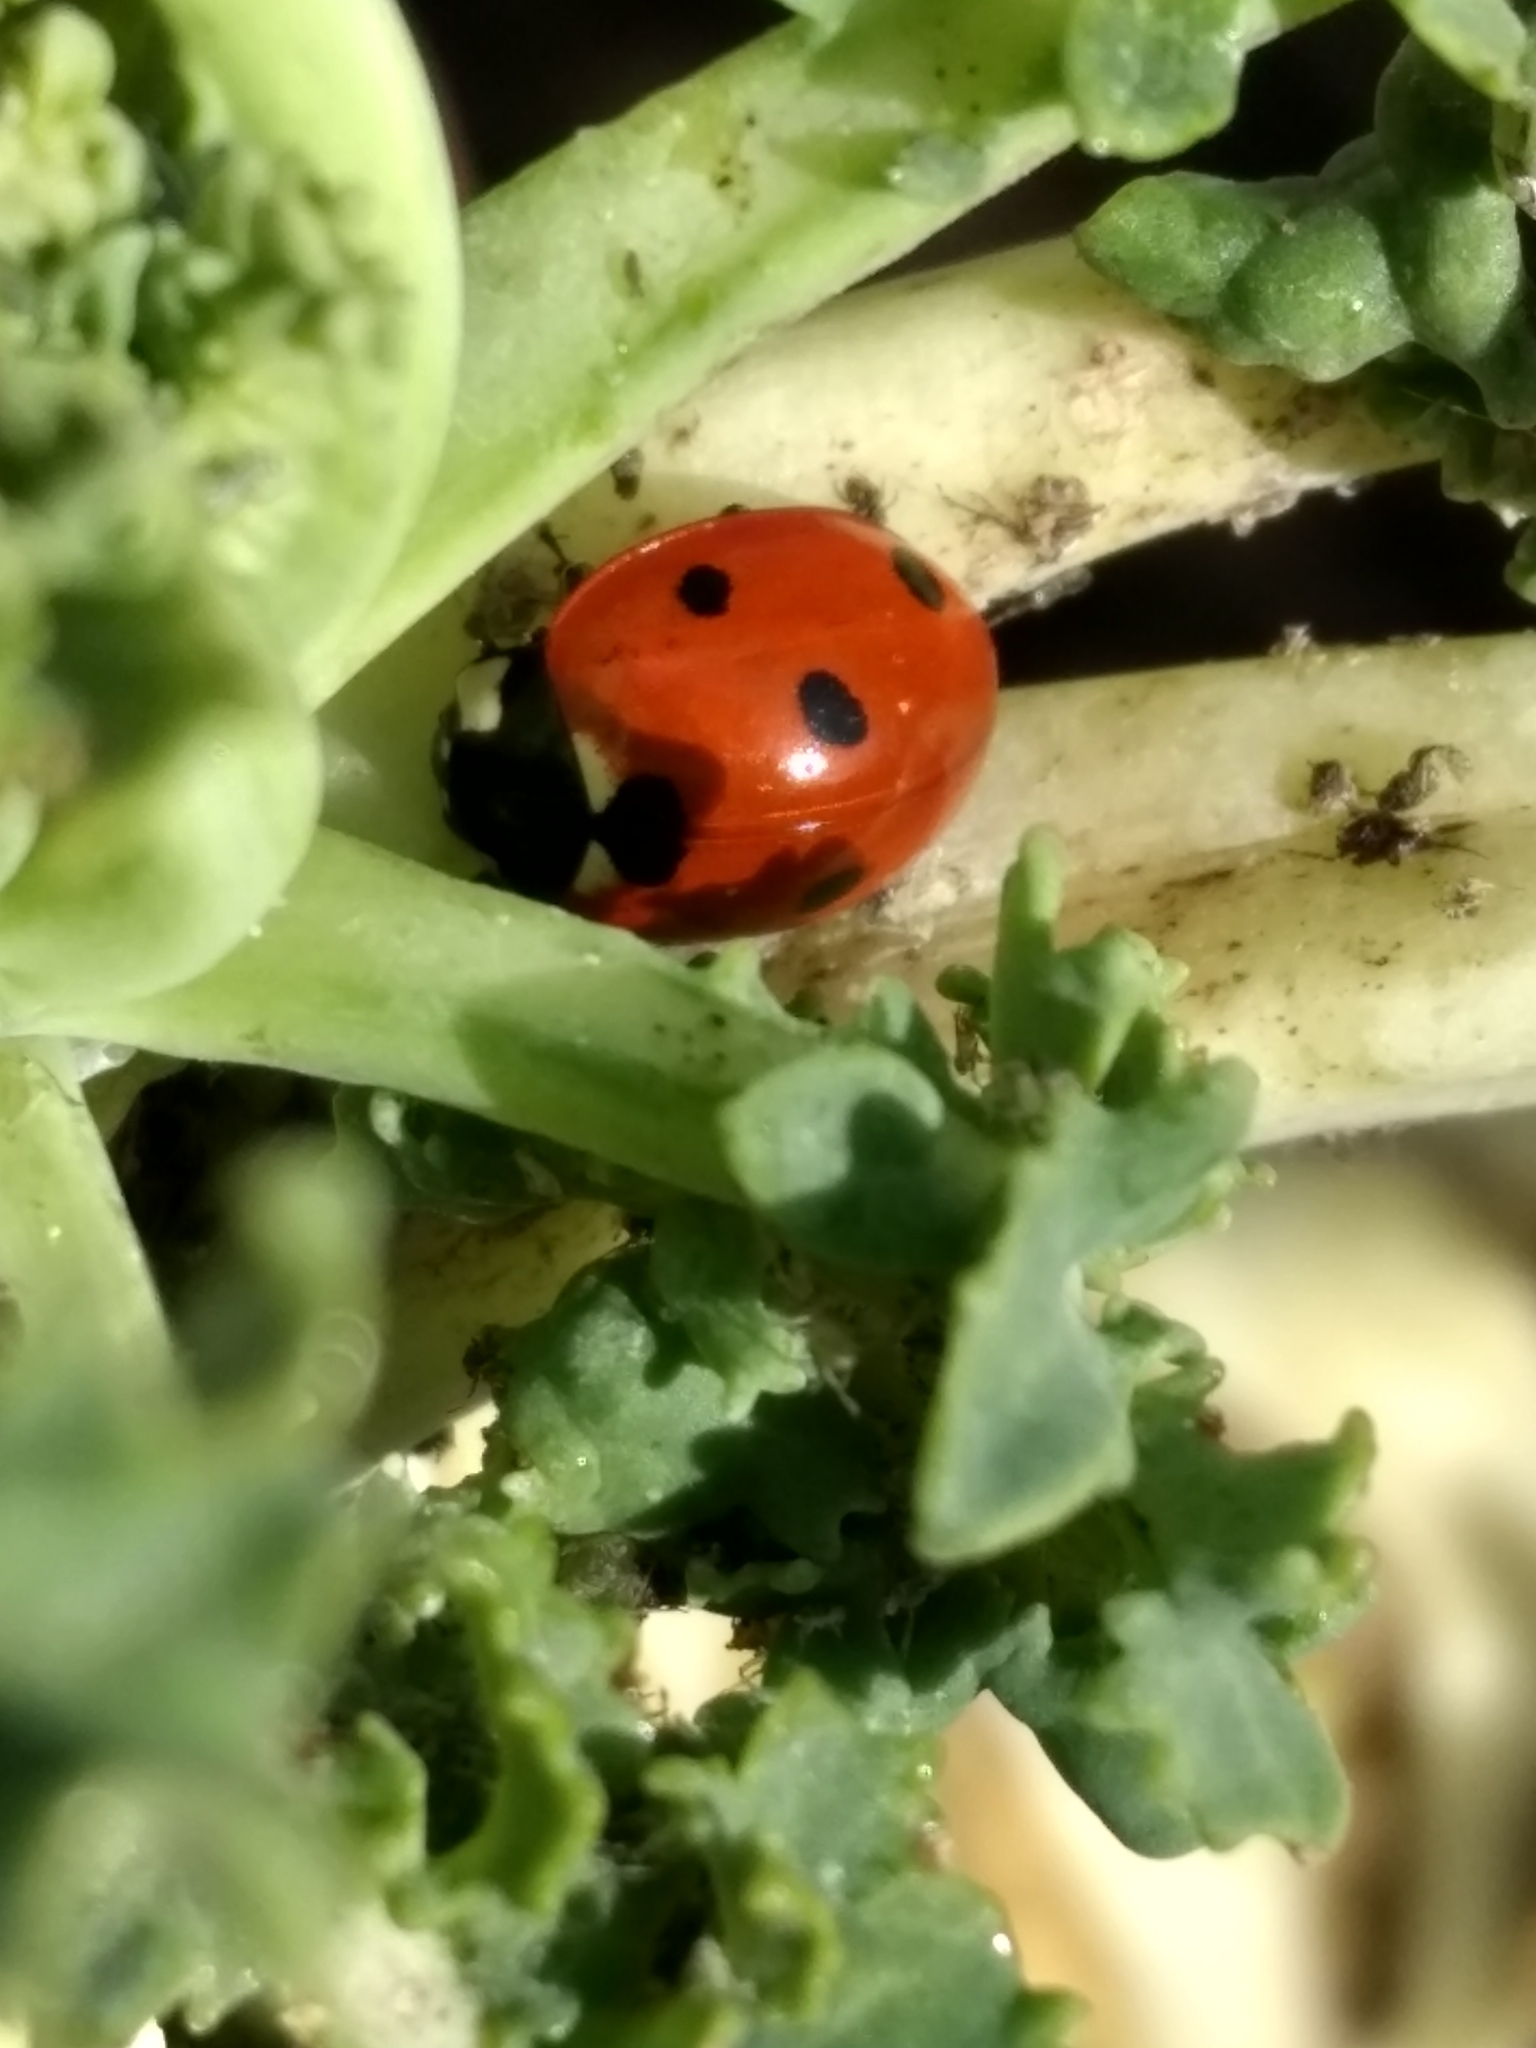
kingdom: Animalia
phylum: Arthropoda
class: Insecta
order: Coleoptera
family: Coccinellidae
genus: Coccinella
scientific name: Coccinella septempunctata
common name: Sevenspotted lady beetle
